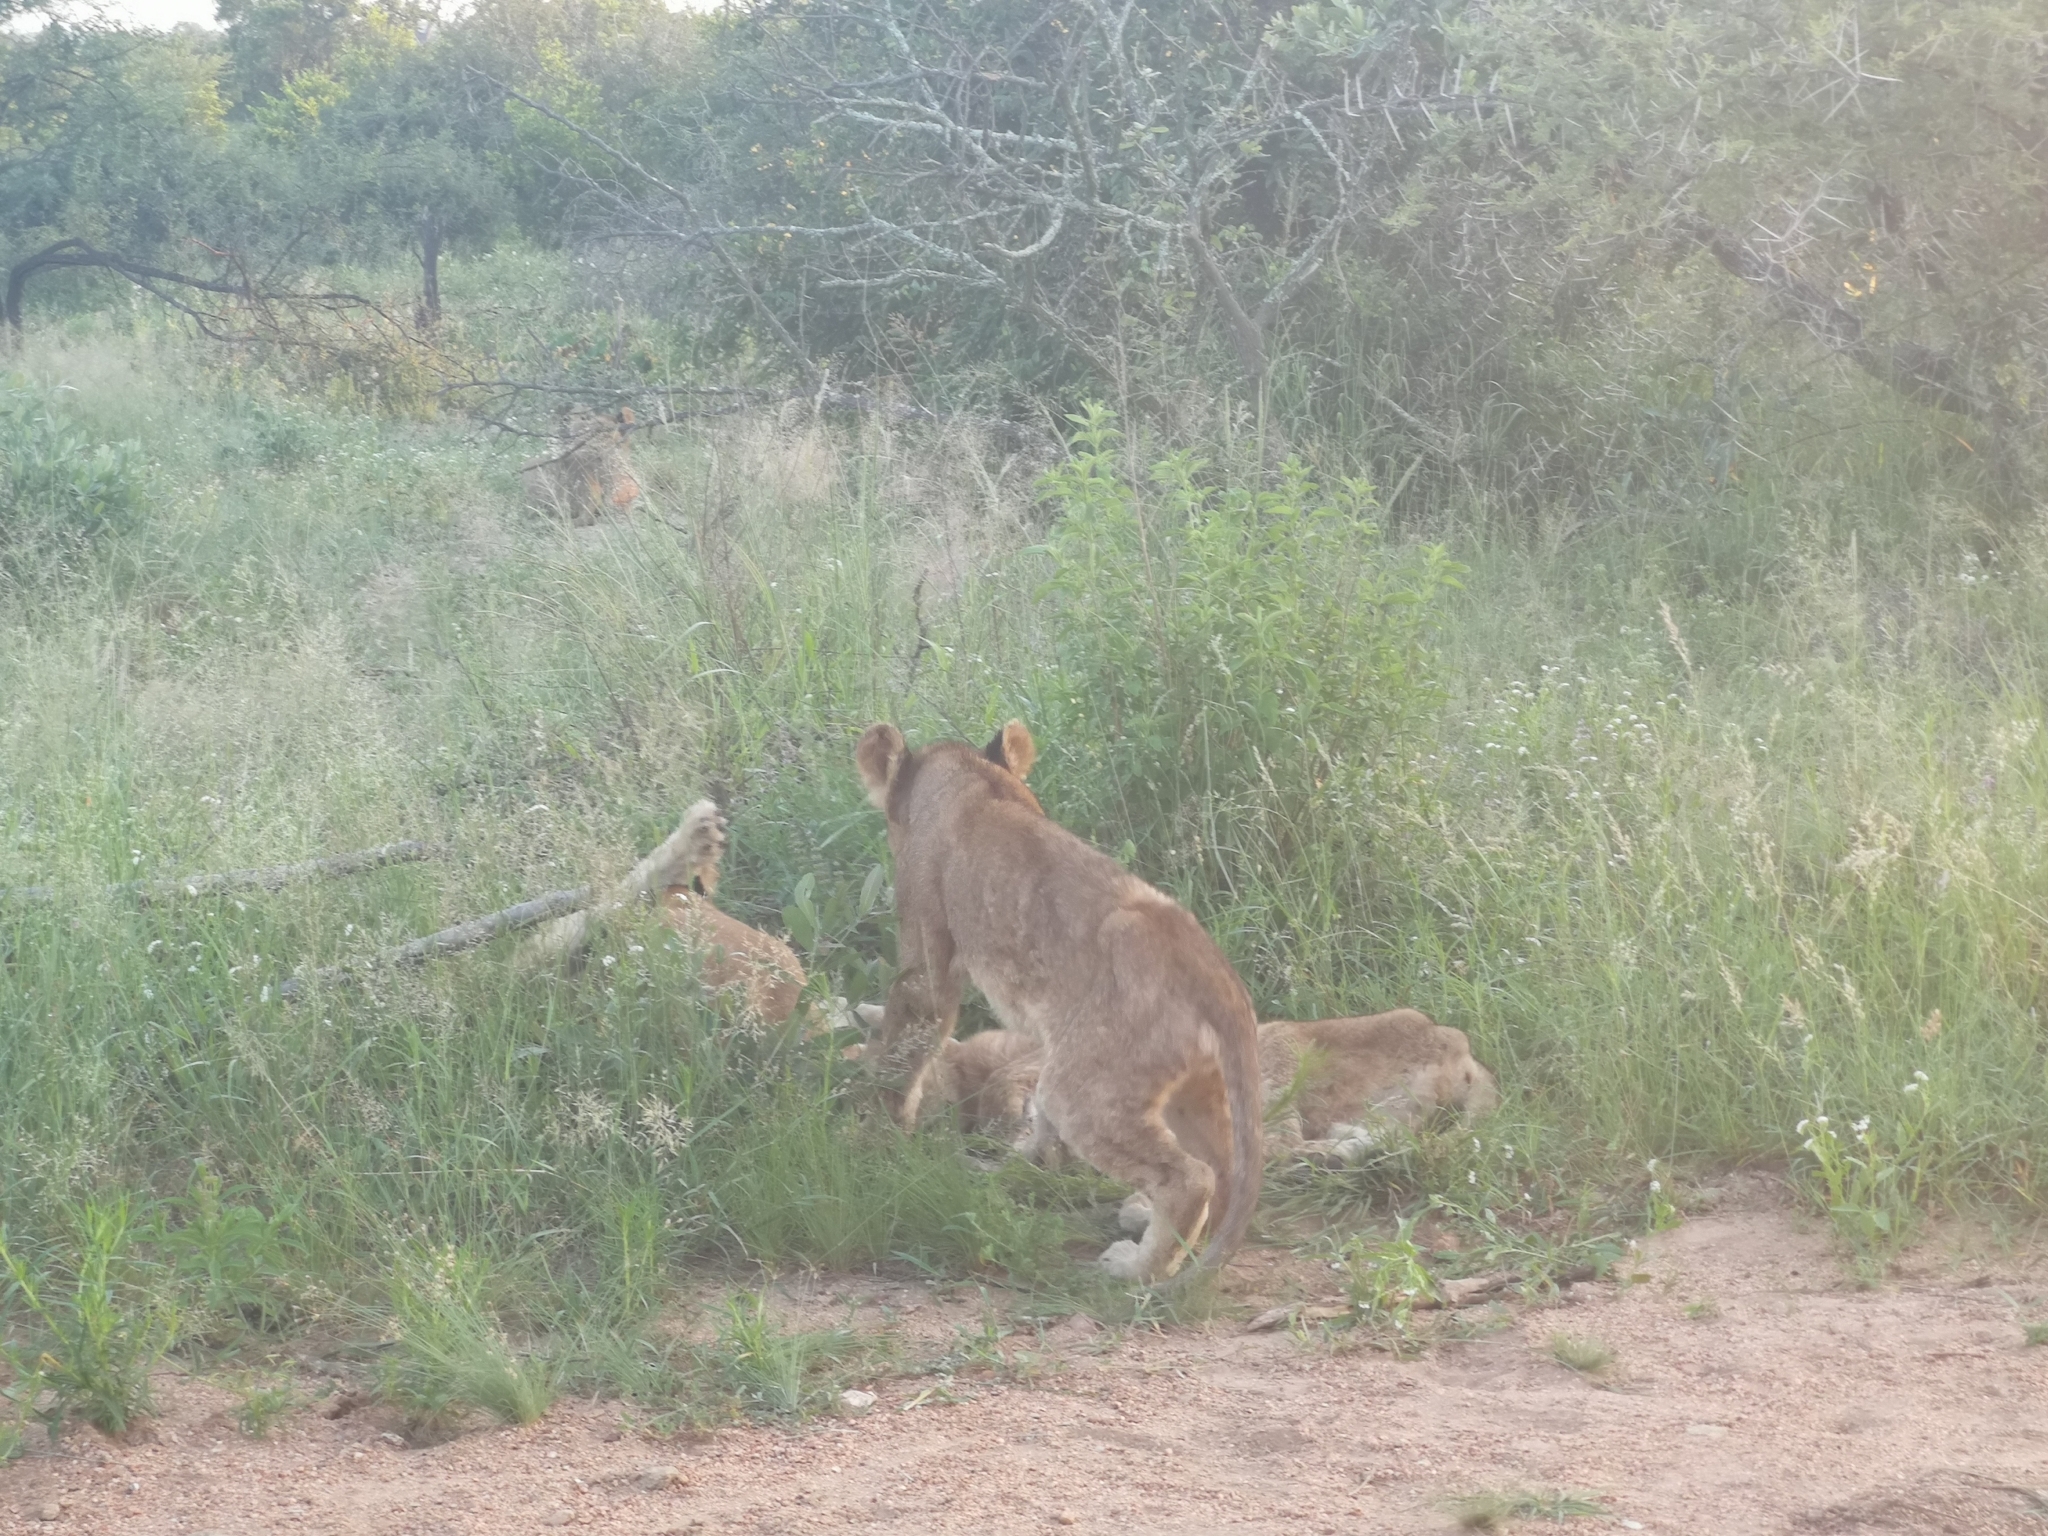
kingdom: Animalia
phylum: Chordata
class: Mammalia
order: Carnivora
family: Felidae
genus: Panthera
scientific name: Panthera leo
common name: Lion
